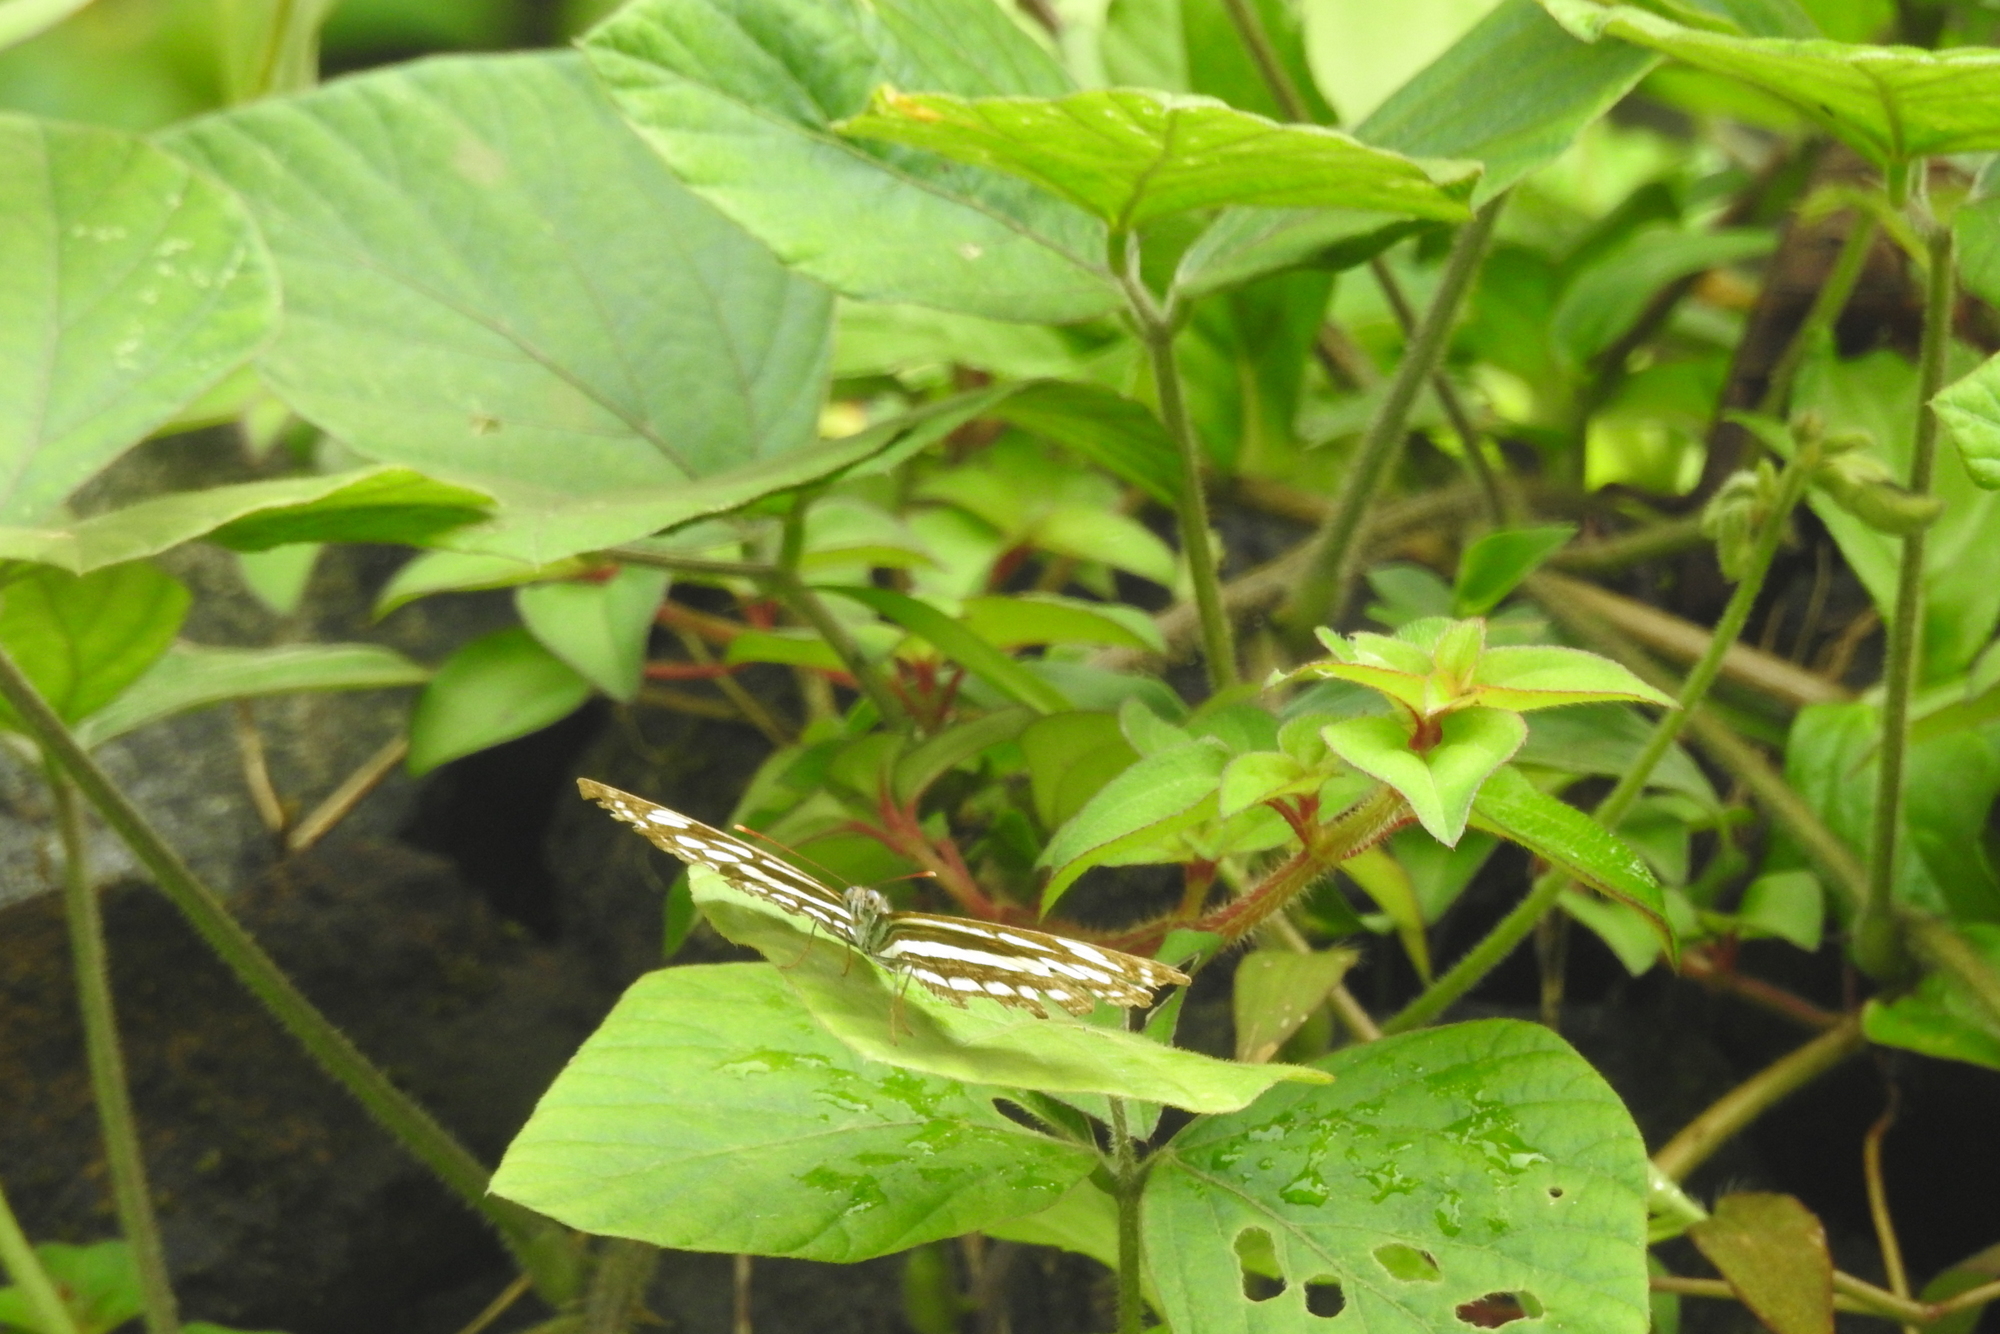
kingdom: Animalia
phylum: Arthropoda
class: Insecta
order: Lepidoptera
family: Nymphalidae
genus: Neptis
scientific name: Neptis hylas
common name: Common sailer
